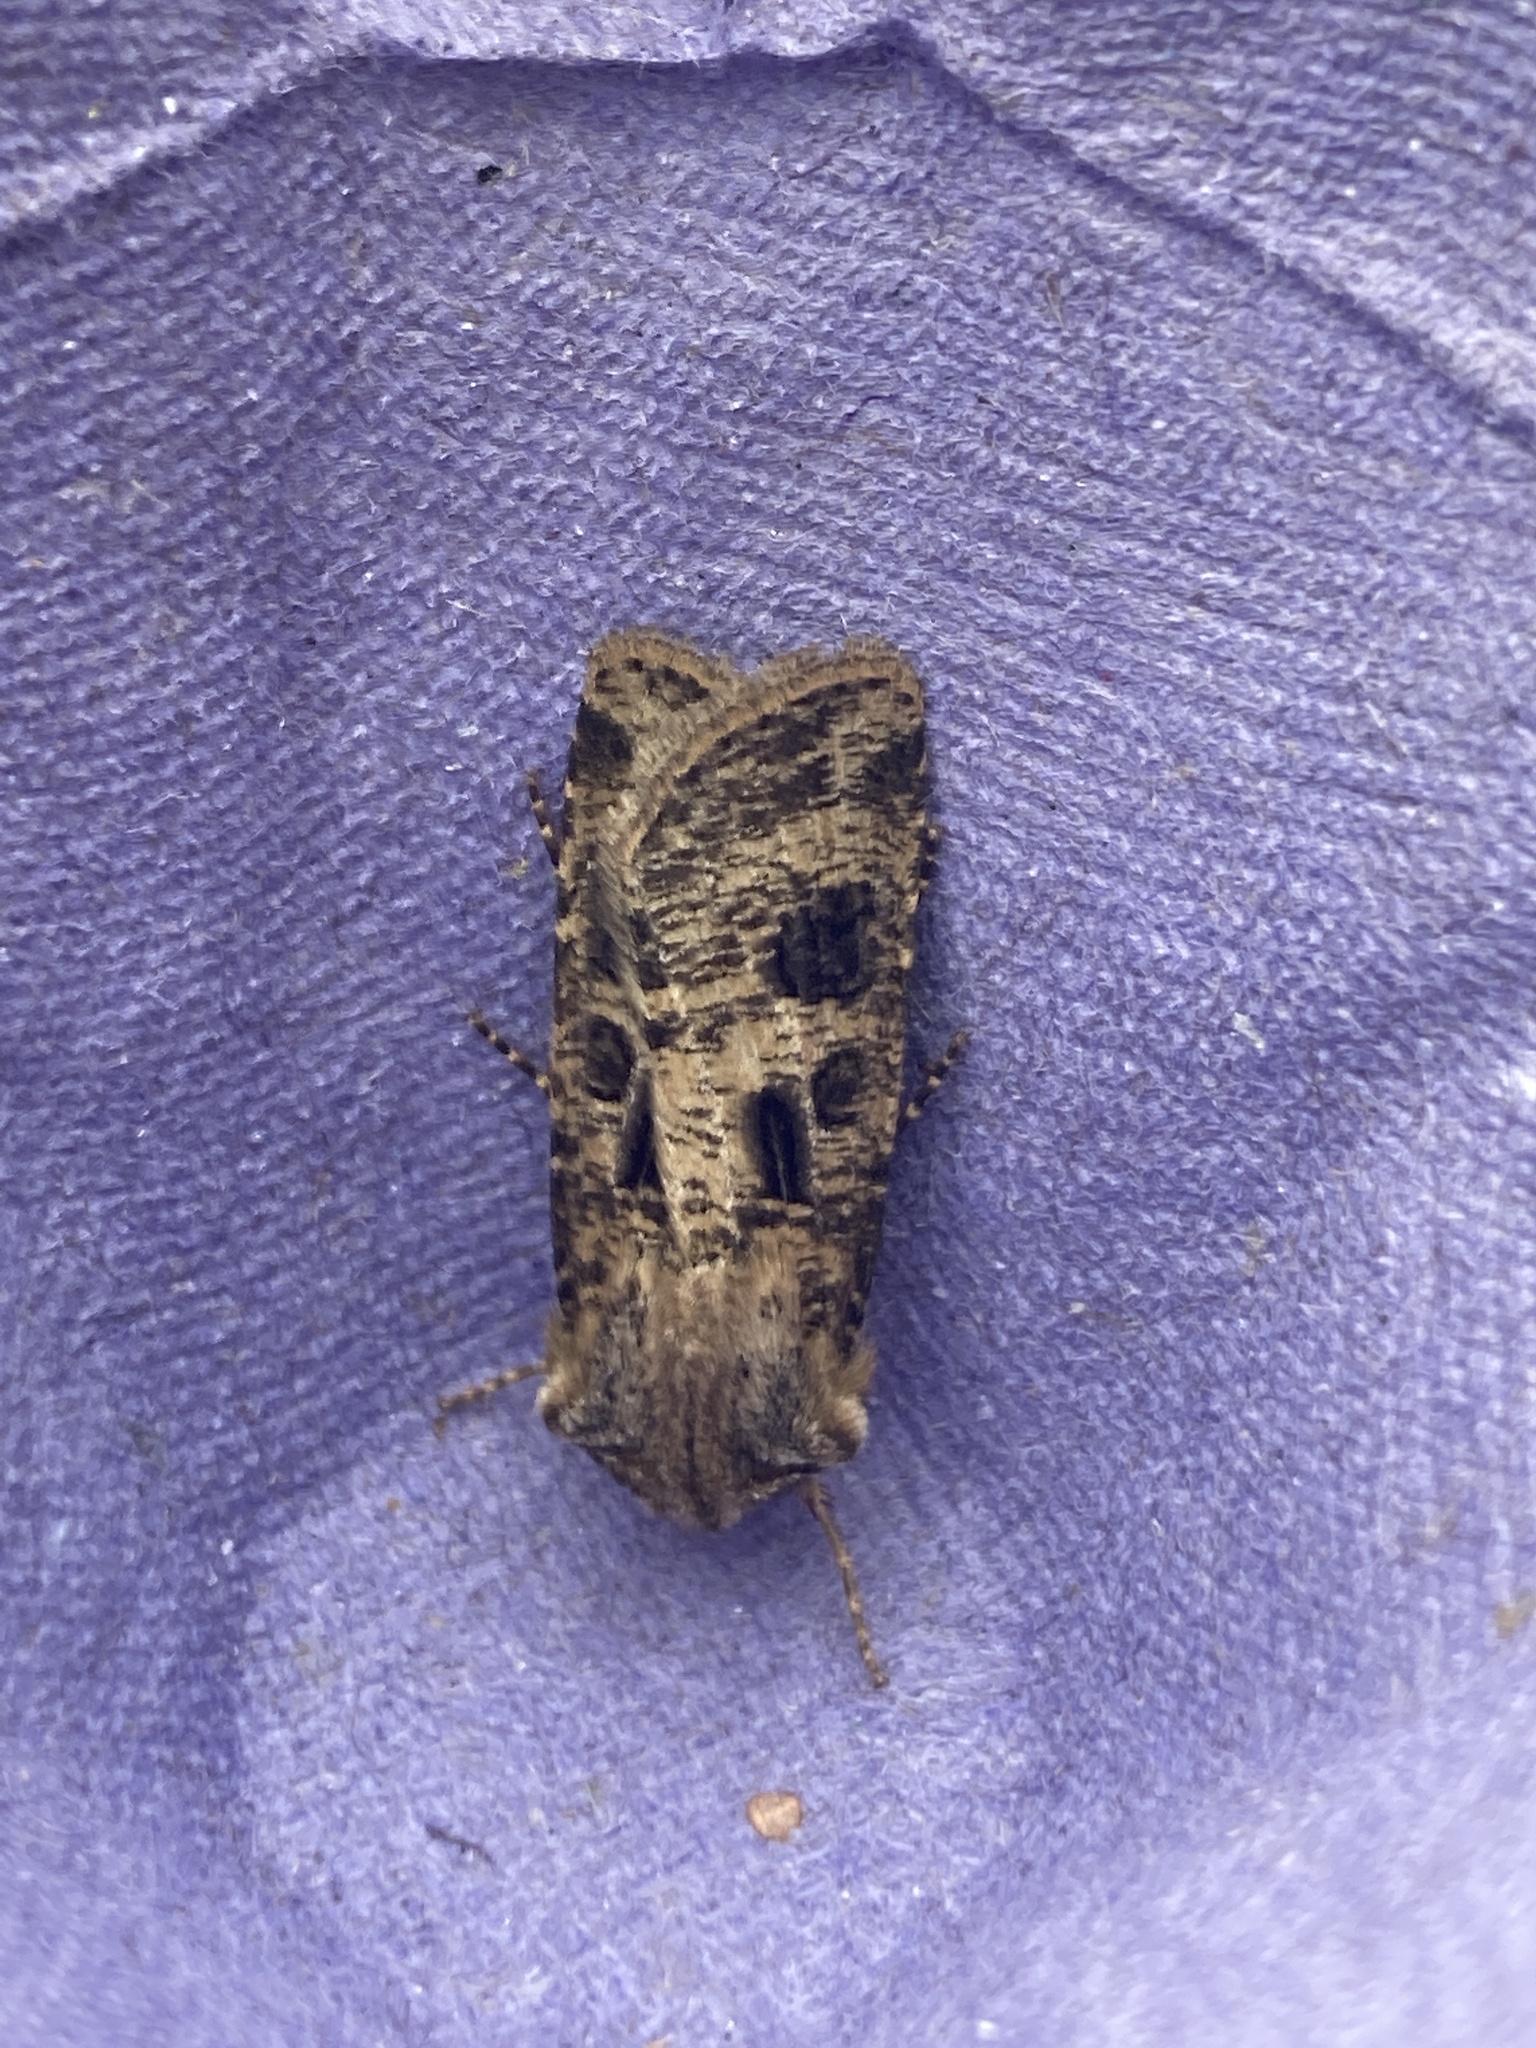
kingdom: Animalia
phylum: Arthropoda
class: Insecta
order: Lepidoptera
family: Noctuidae
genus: Agrotis
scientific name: Agrotis clavis
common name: Heart and club
